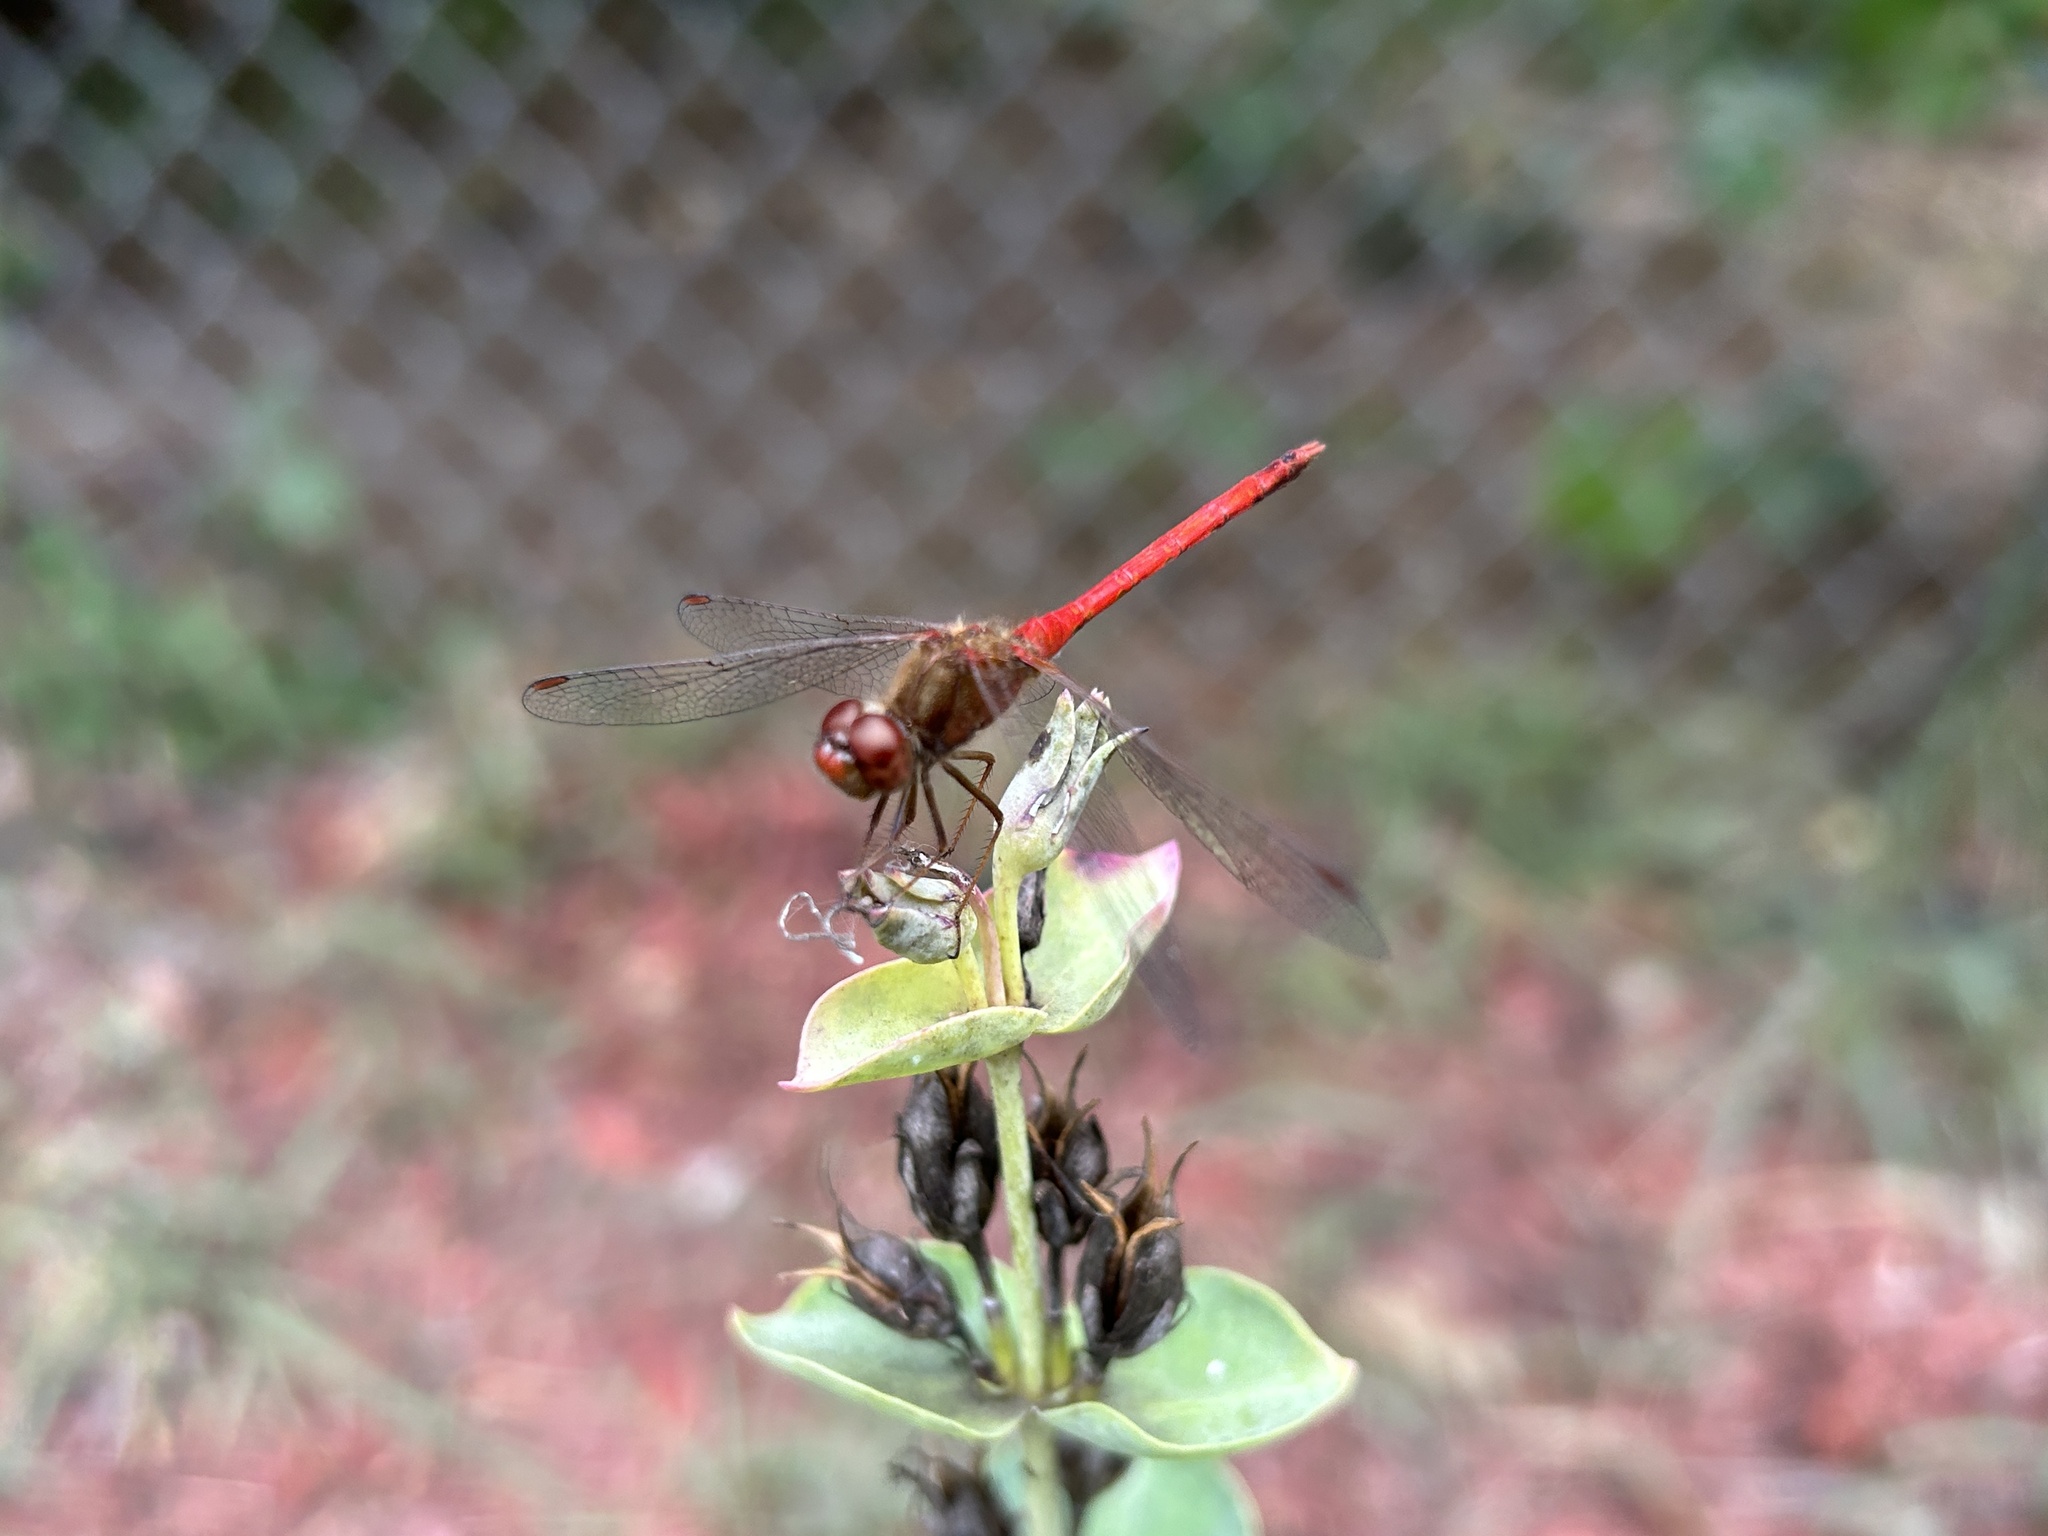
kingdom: Animalia
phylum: Arthropoda
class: Insecta
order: Odonata
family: Libellulidae
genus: Sympetrum
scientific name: Sympetrum vicinum
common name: Autumn meadowhawk
